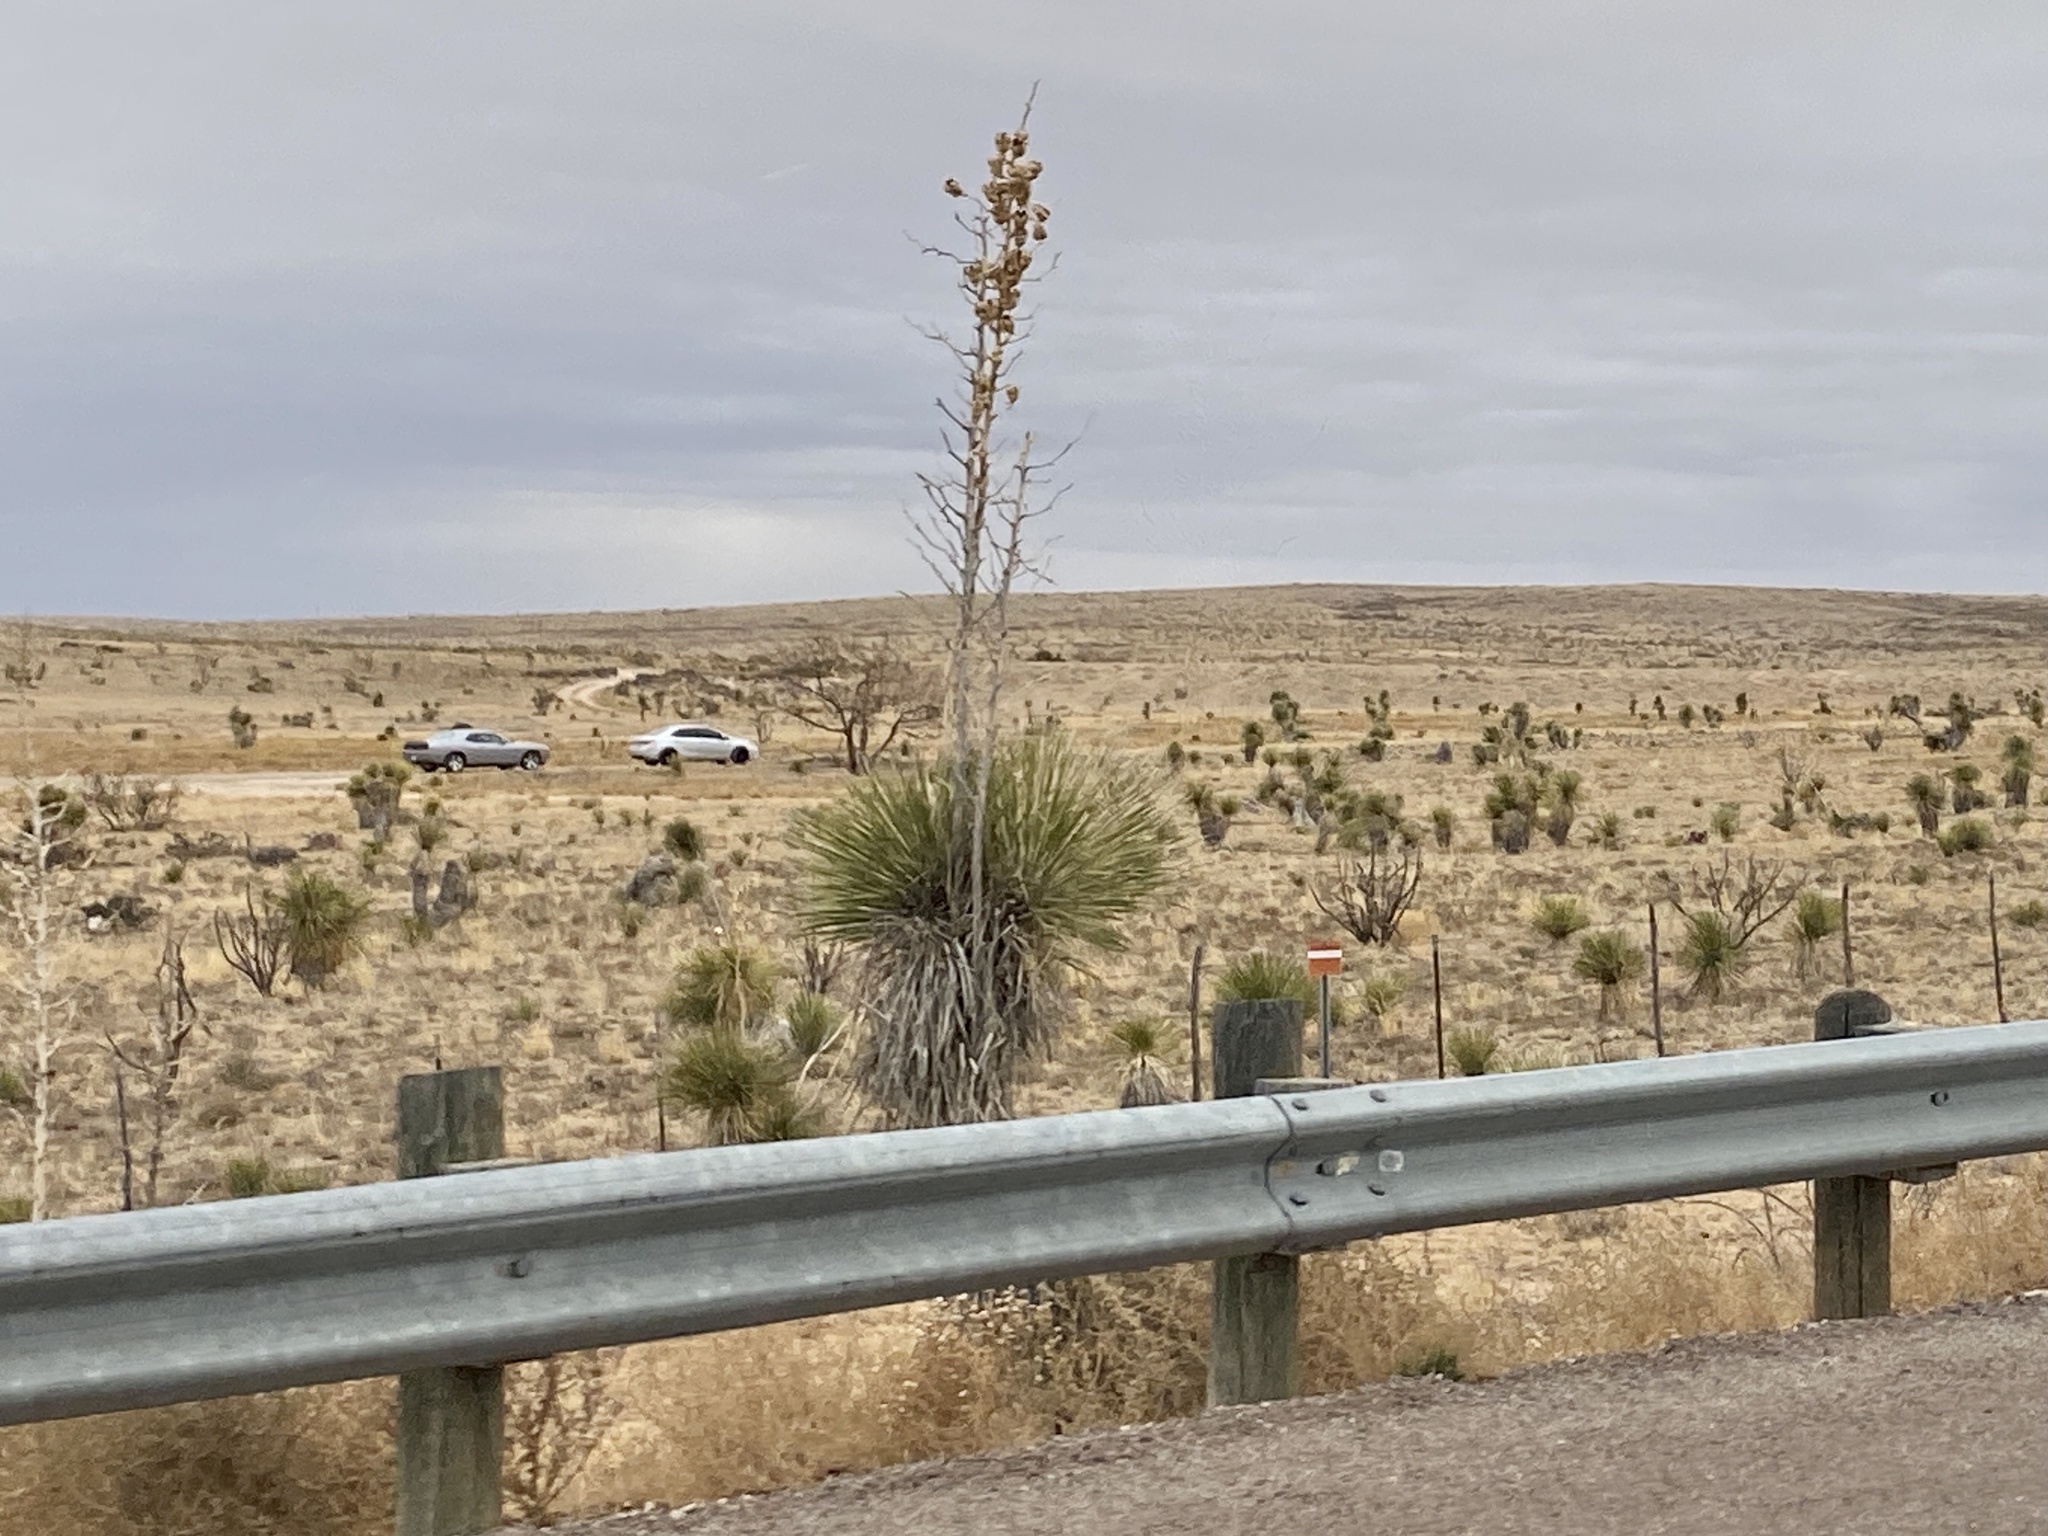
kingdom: Plantae
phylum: Tracheophyta
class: Liliopsida
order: Asparagales
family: Asparagaceae
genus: Yucca
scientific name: Yucca elata
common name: Palmella
